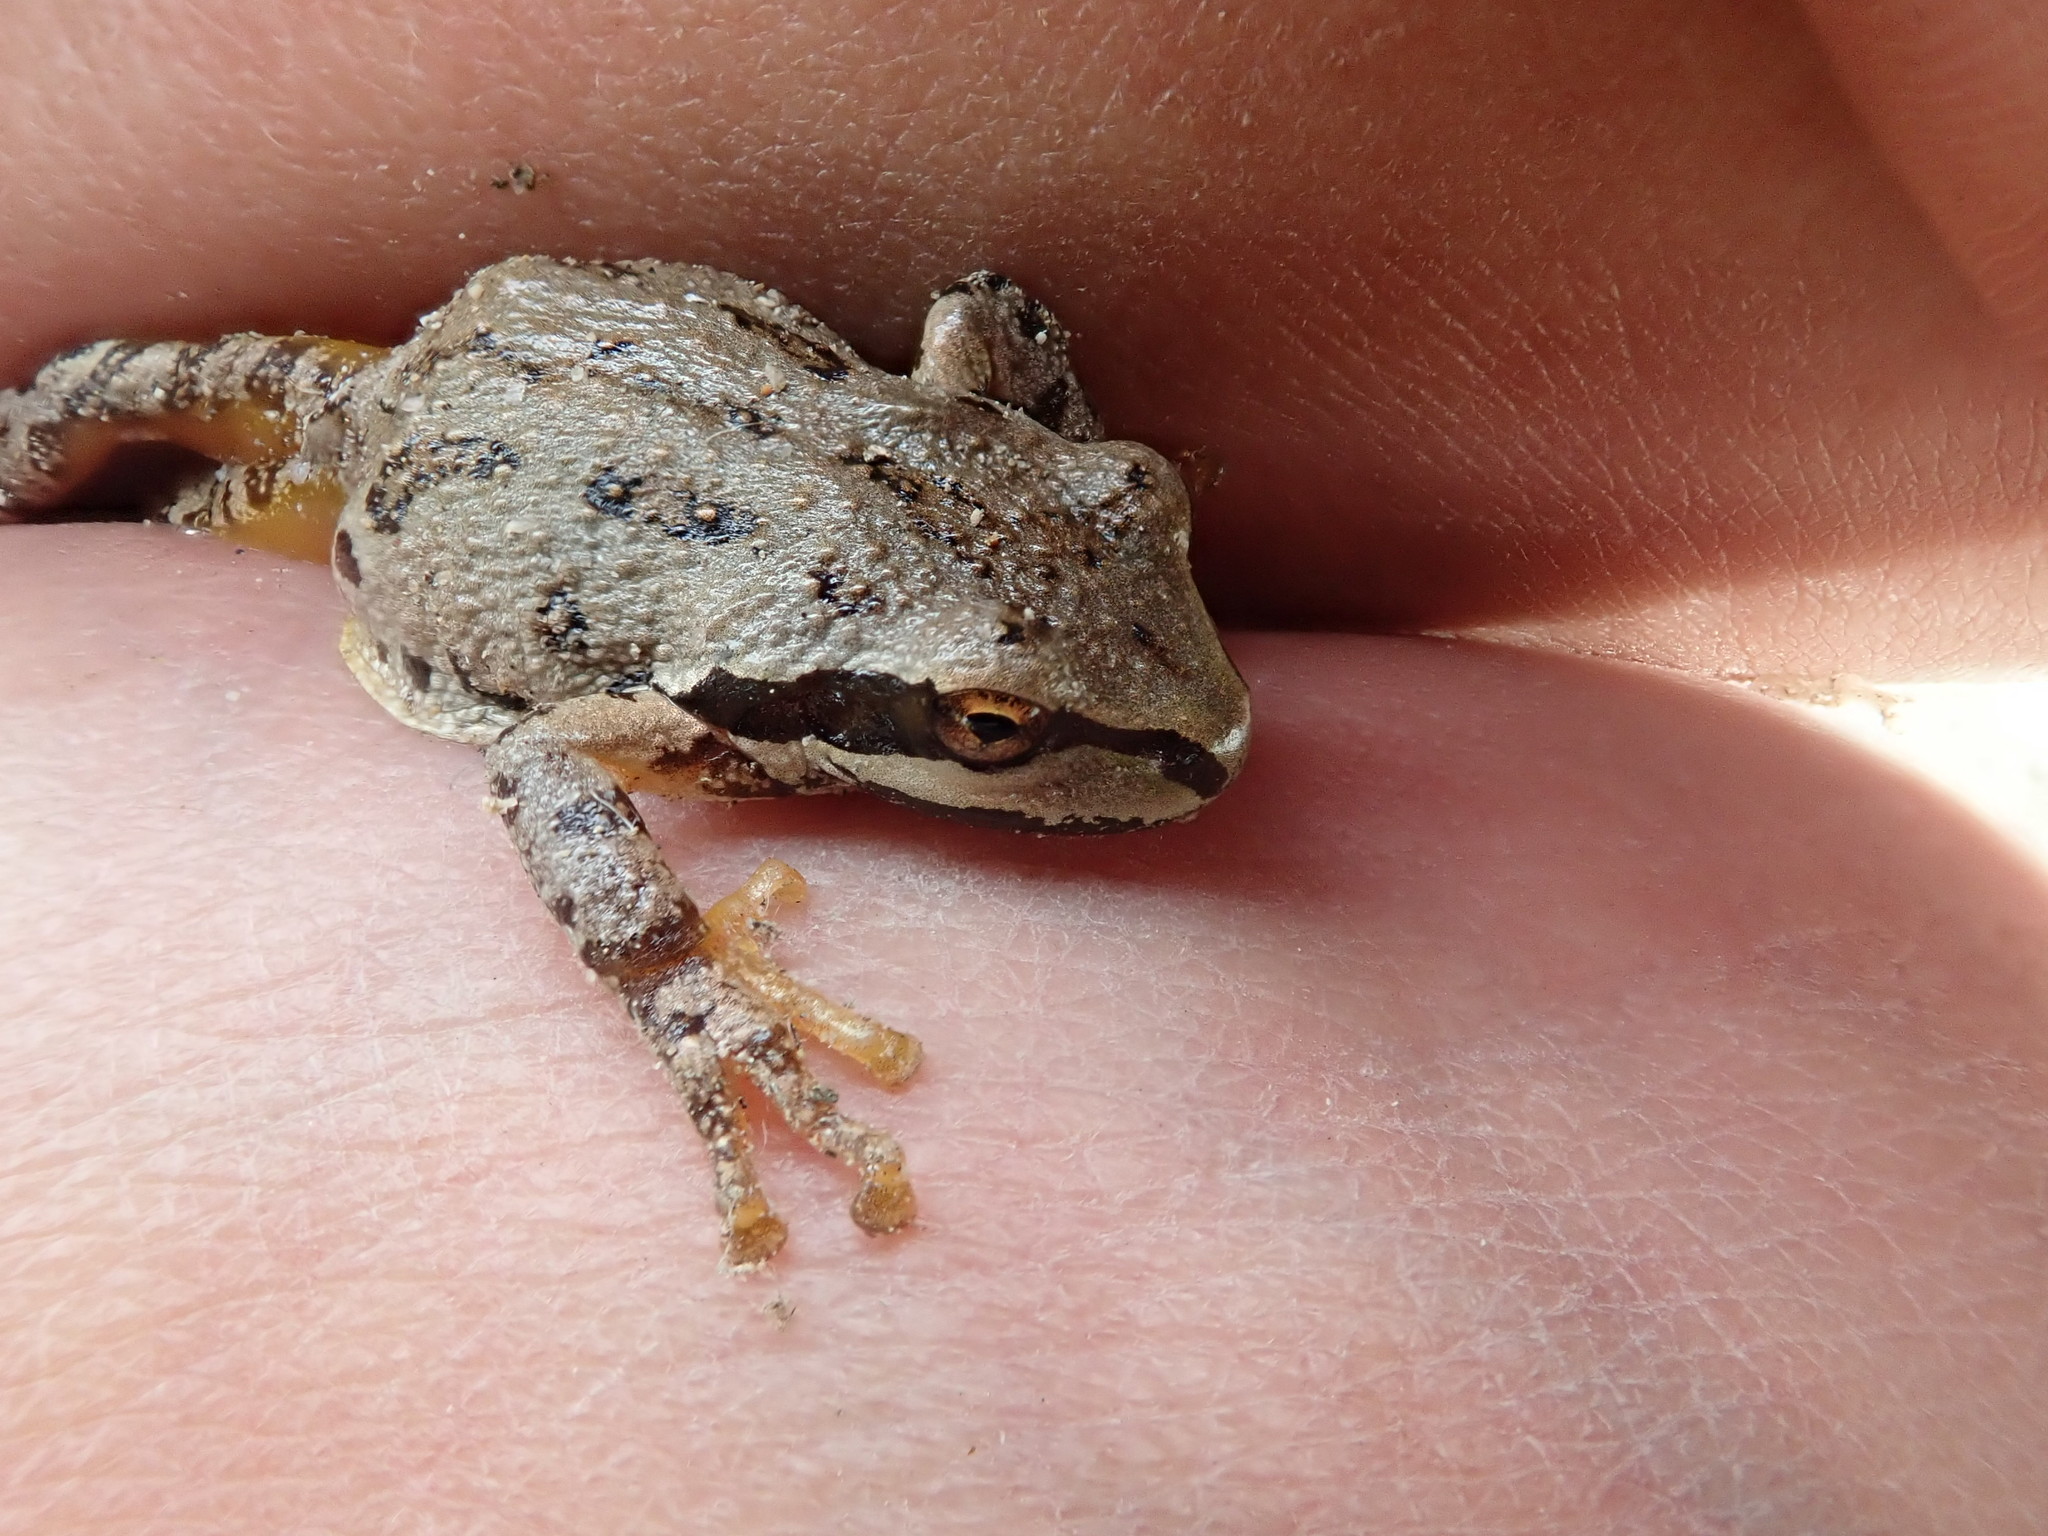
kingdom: Animalia
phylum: Chordata
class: Amphibia
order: Anura
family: Hylidae
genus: Pseudacris
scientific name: Pseudacris regilla
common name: Pacific chorus frog
